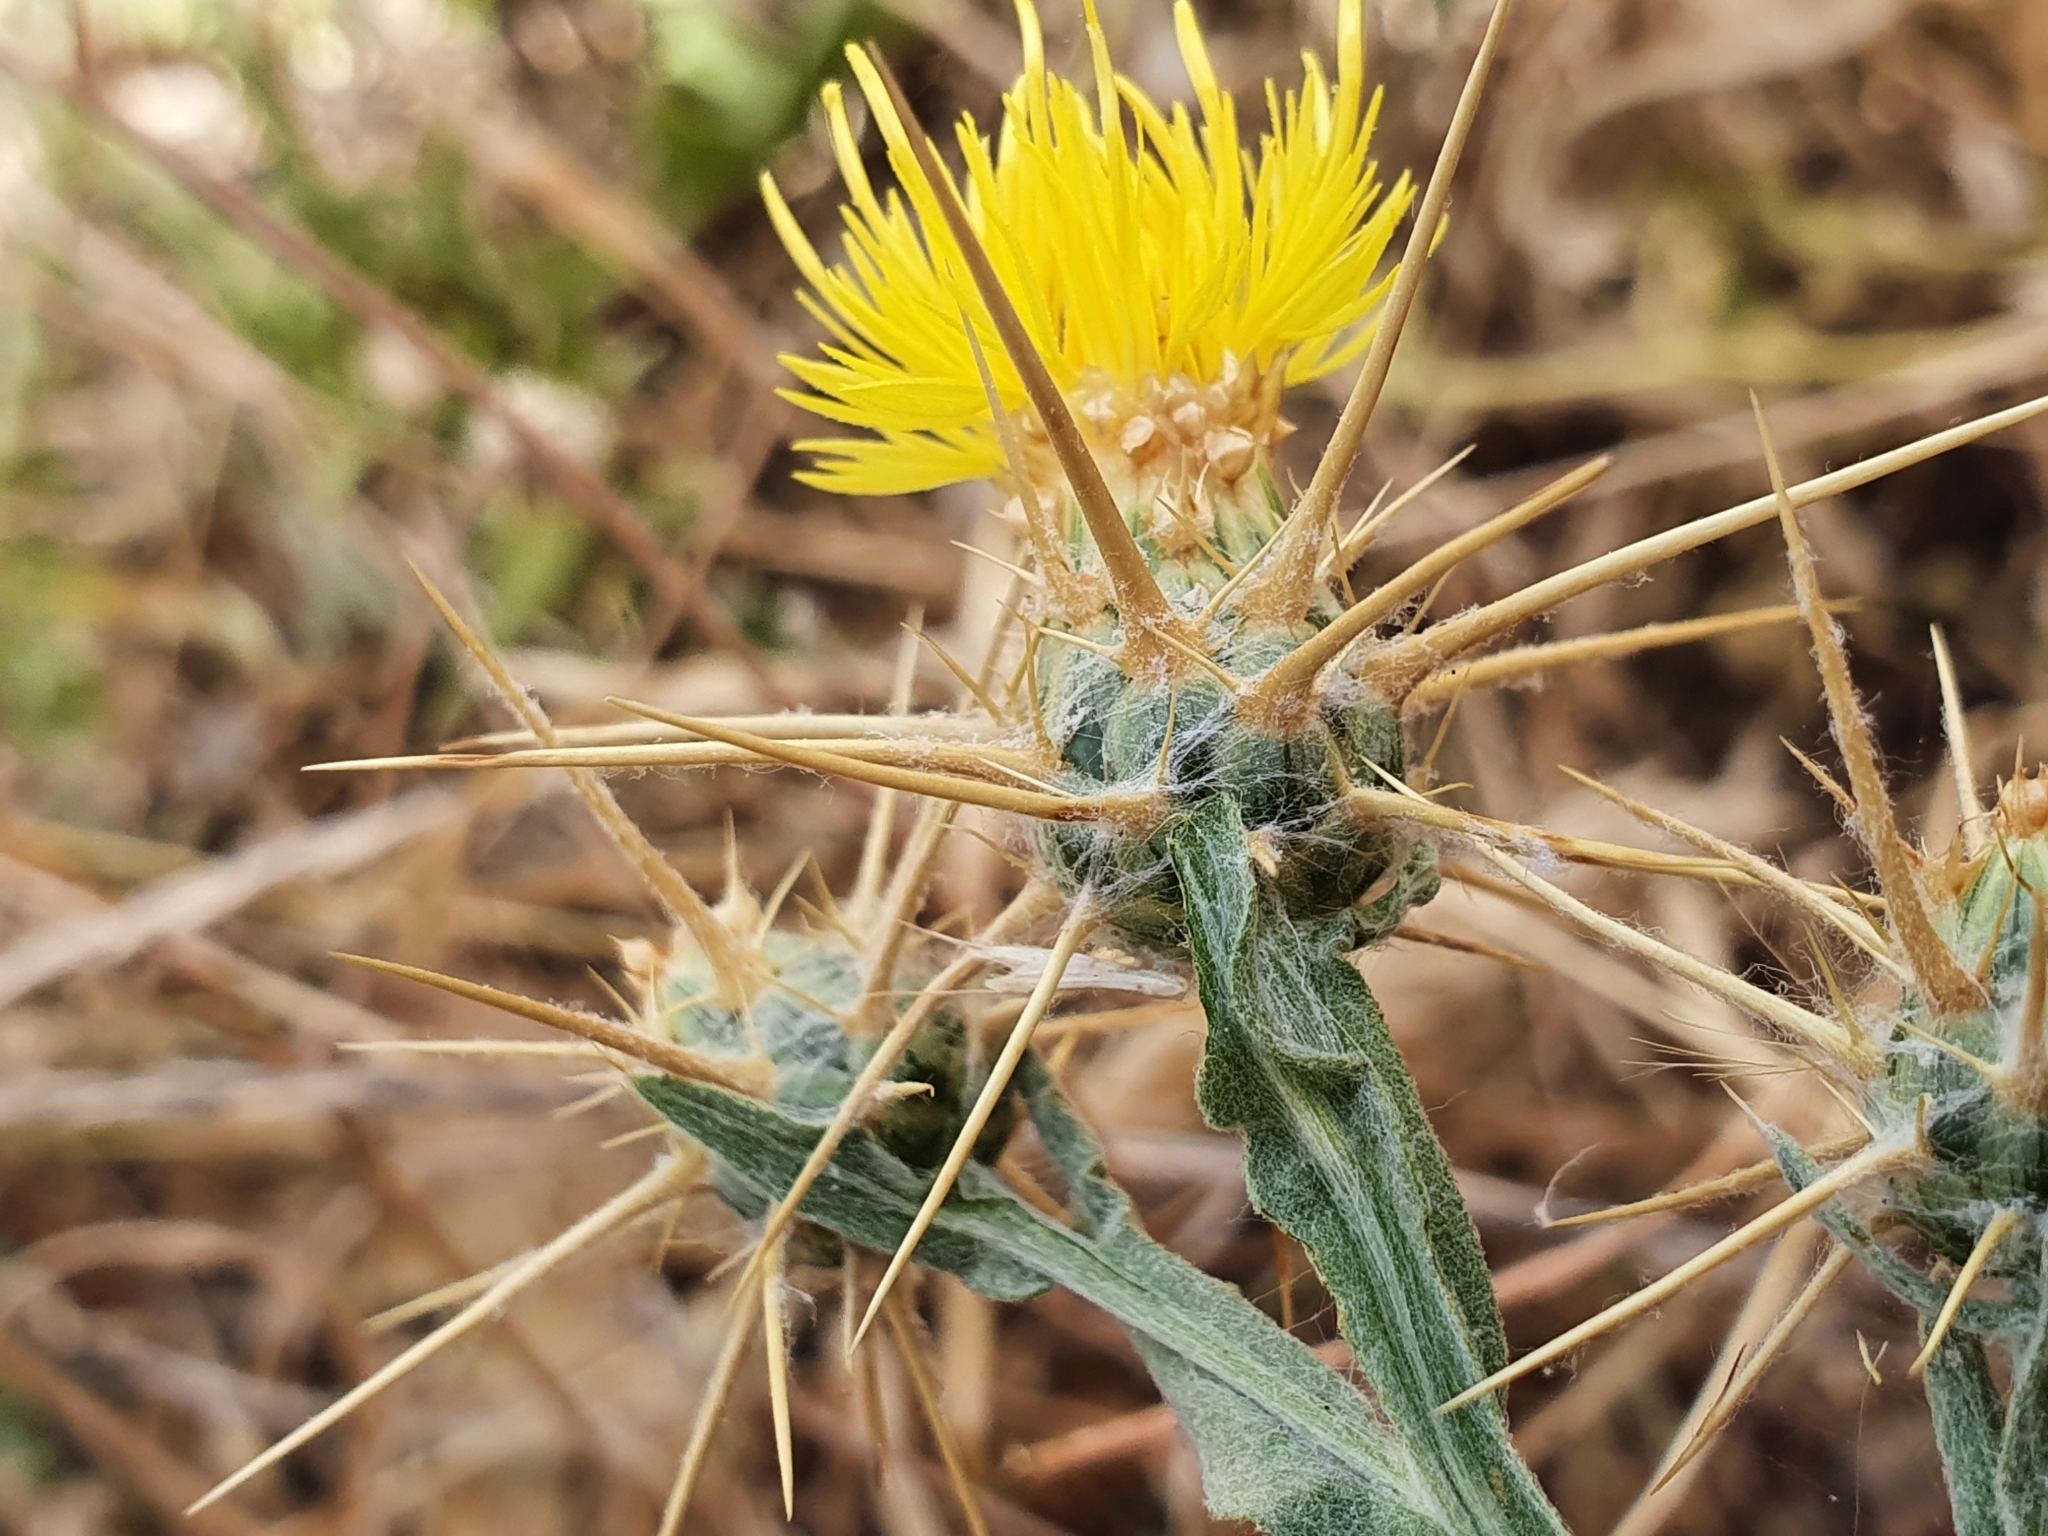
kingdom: Plantae
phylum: Tracheophyta
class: Magnoliopsida
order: Asterales
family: Asteraceae
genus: Centaurea
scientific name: Centaurea solstitialis
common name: Yellow star-thistle
